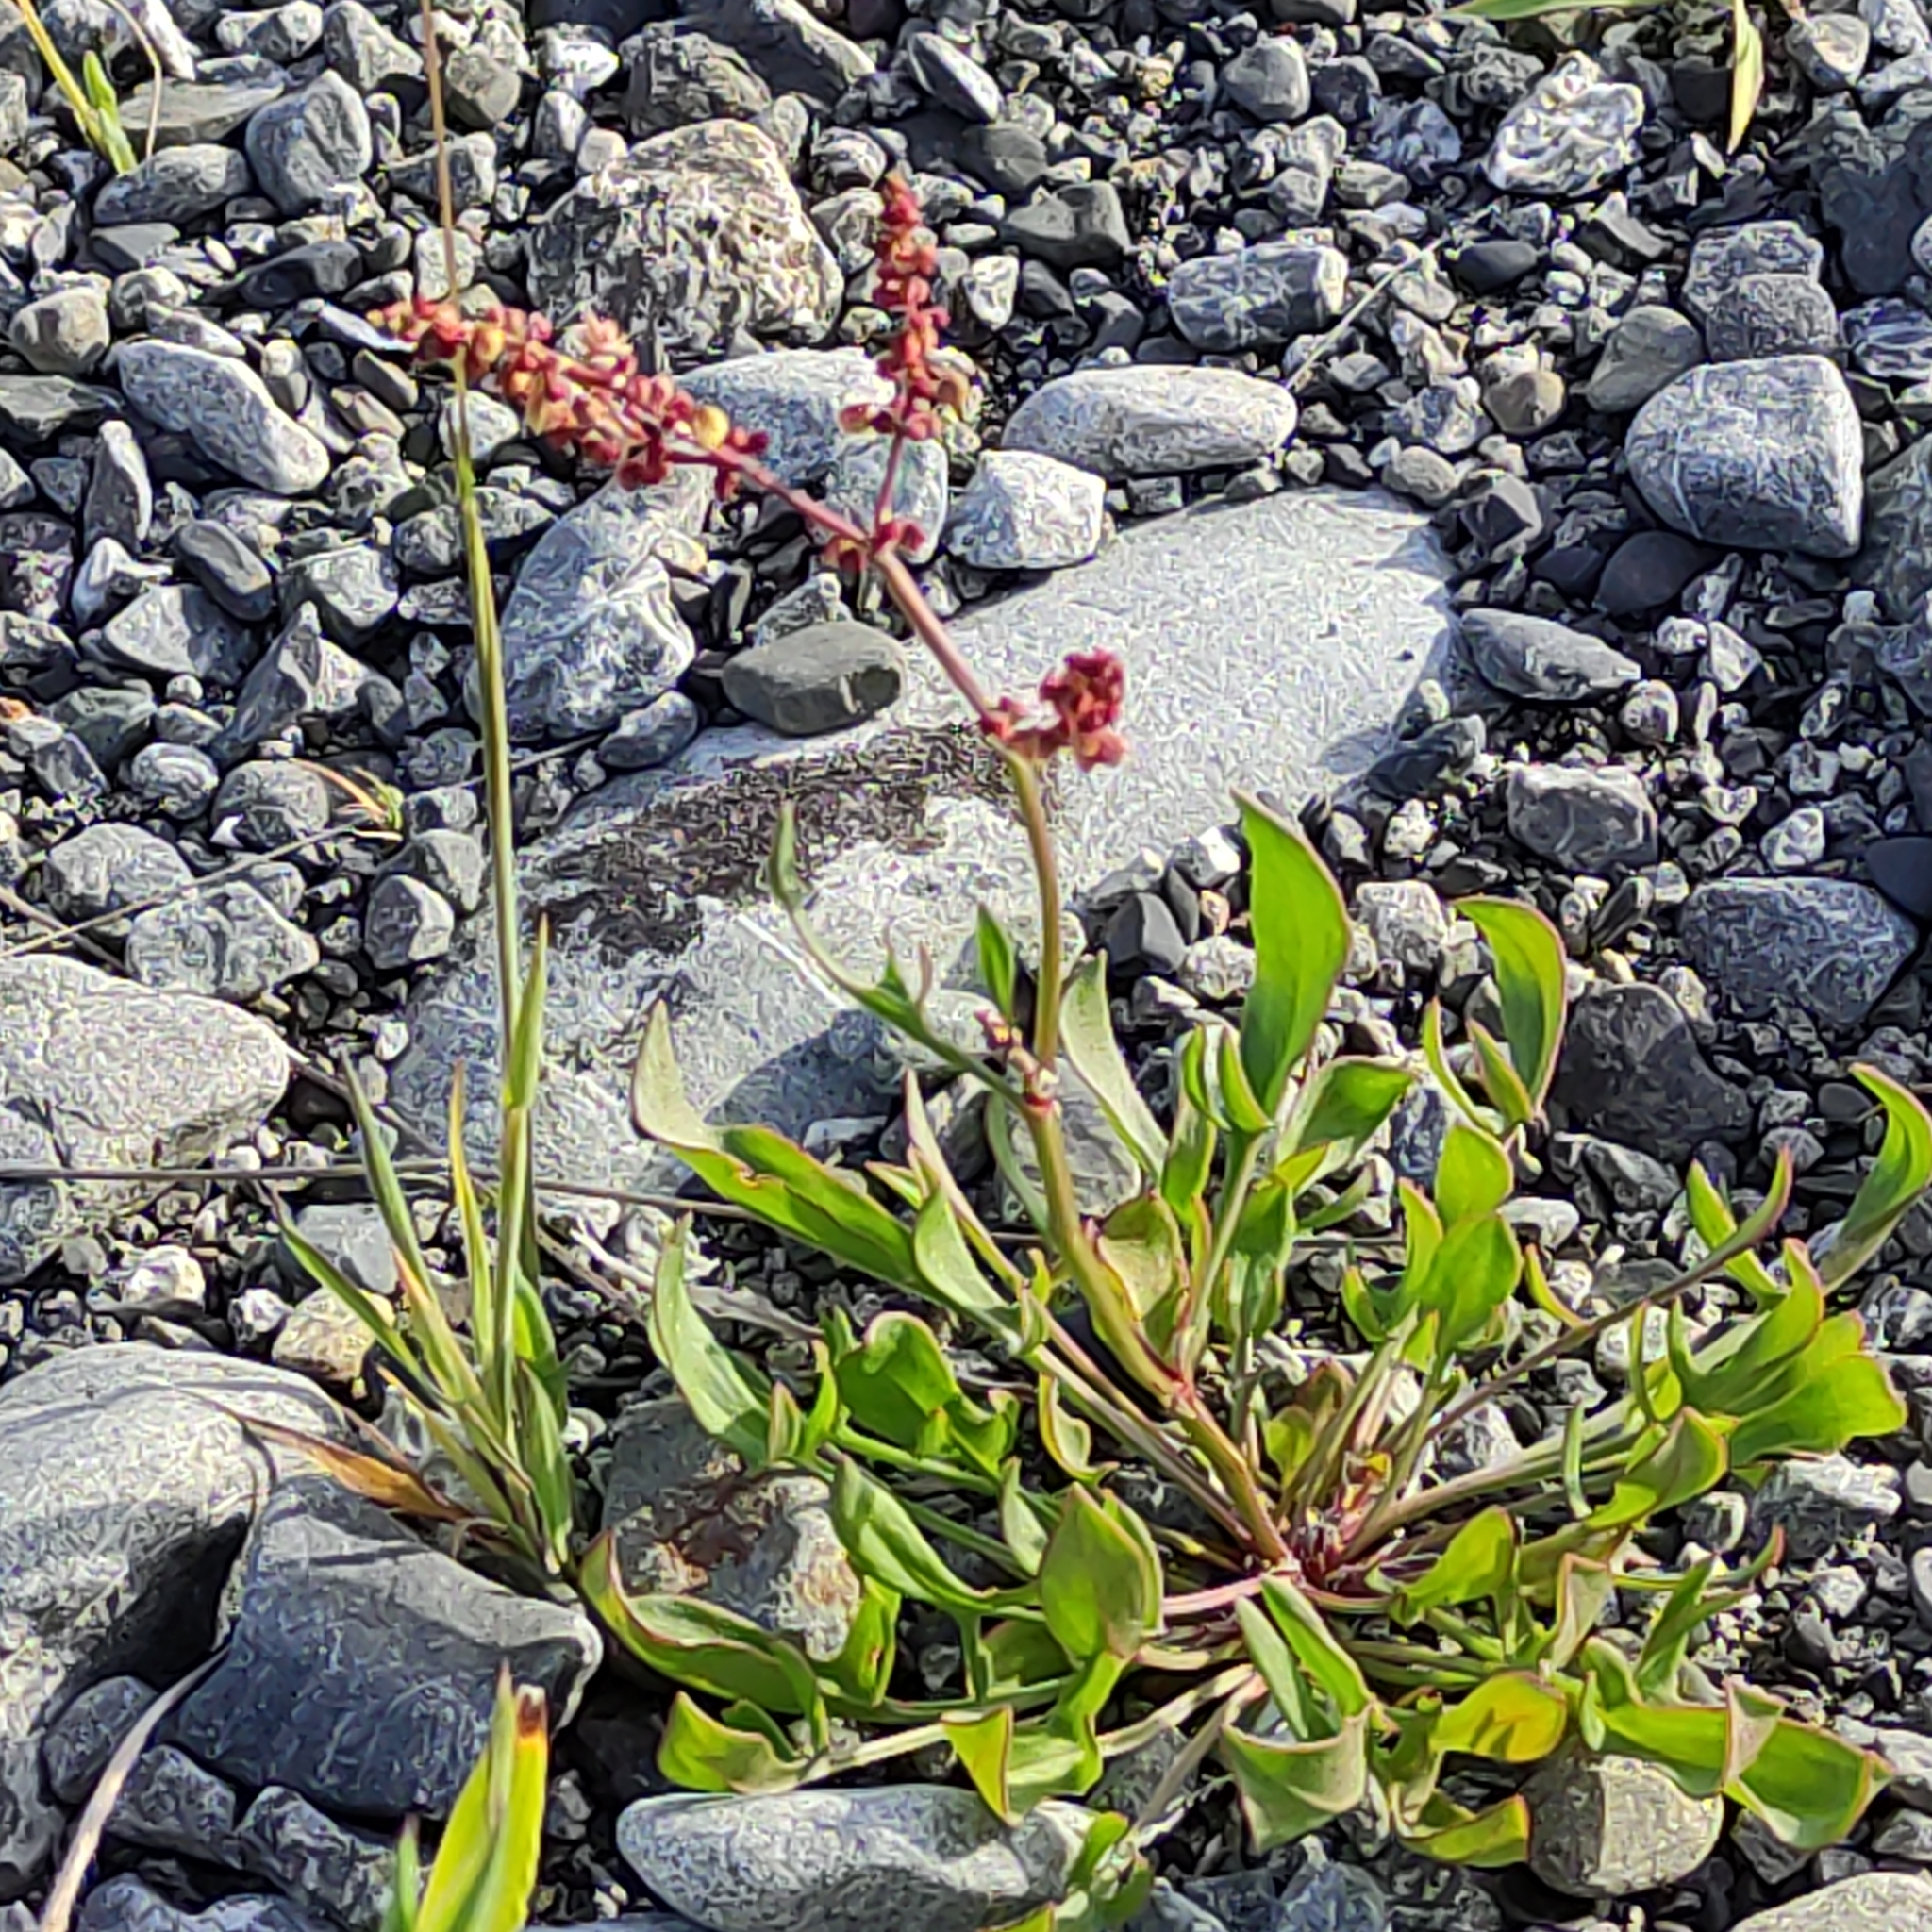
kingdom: Plantae
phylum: Tracheophyta
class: Magnoliopsida
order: Caryophyllales
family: Polygonaceae
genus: Rumex
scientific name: Rumex acetosella
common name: Common sheep sorrel
